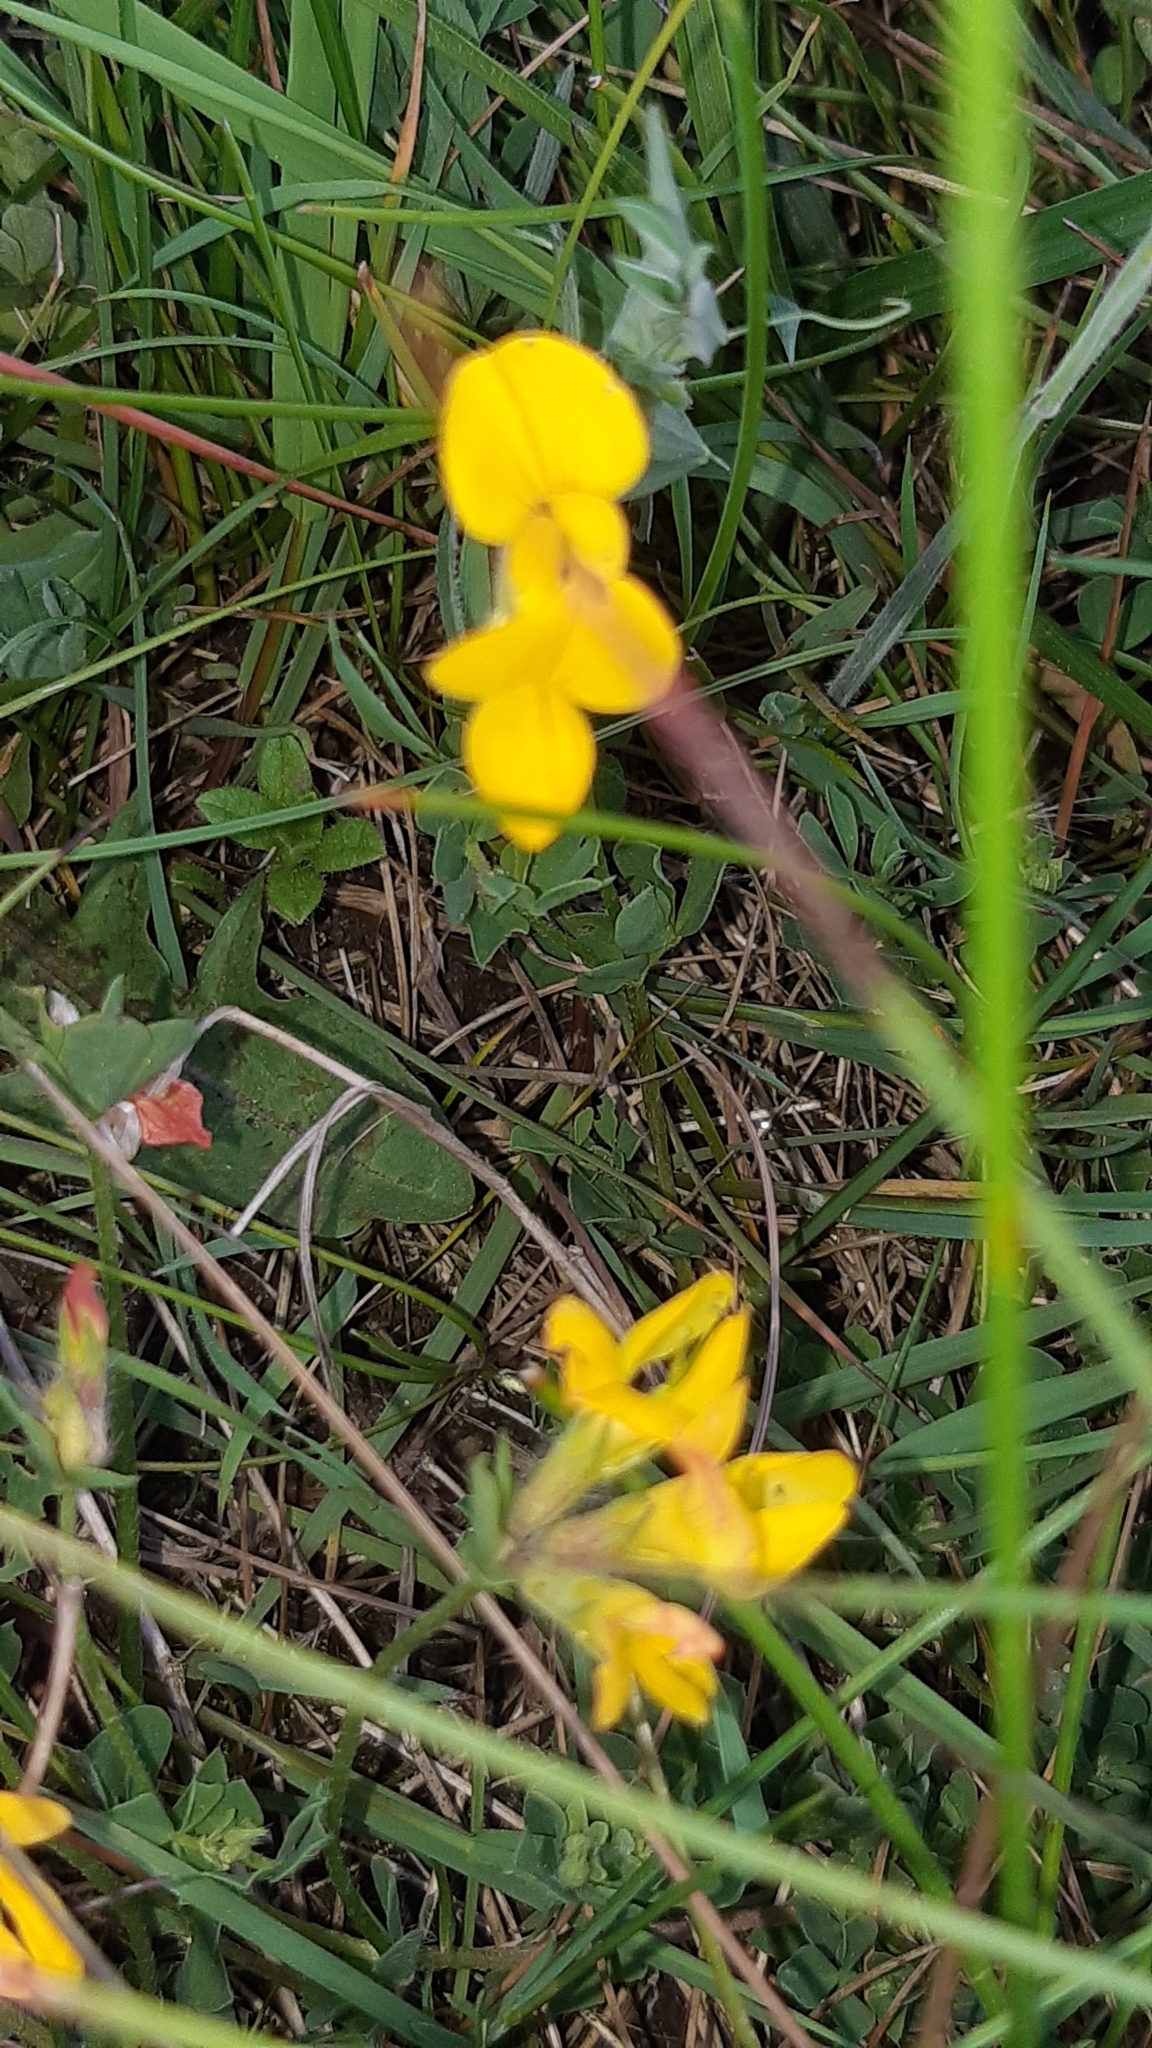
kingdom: Plantae
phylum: Tracheophyta
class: Magnoliopsida
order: Fabales
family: Fabaceae
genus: Lotus
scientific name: Lotus corniculatus
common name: Common bird's-foot-trefoil
